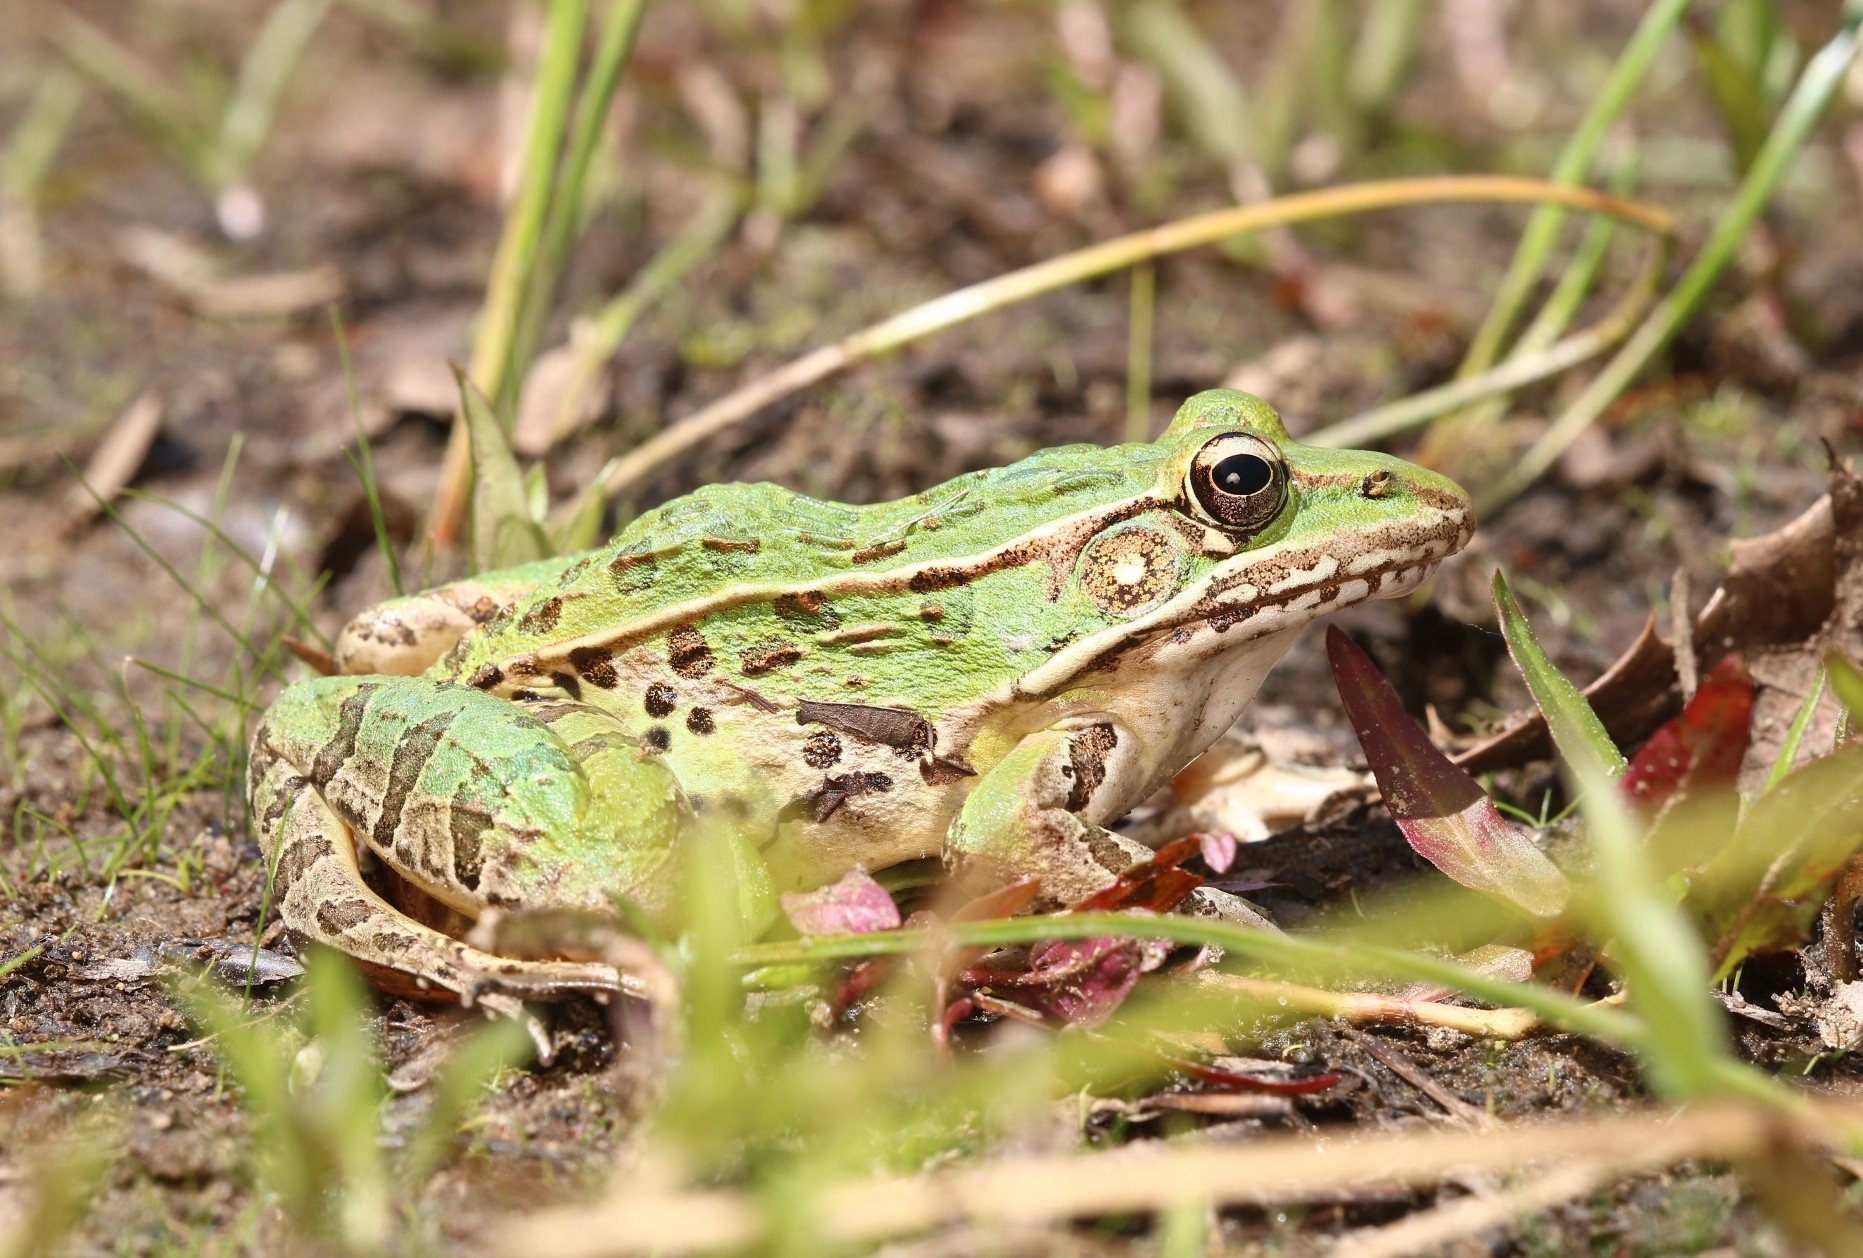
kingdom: Animalia
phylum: Chordata
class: Amphibia
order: Anura
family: Ranidae
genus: Lithobates
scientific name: Lithobates sphenocephalus
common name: Southern leopard frog
